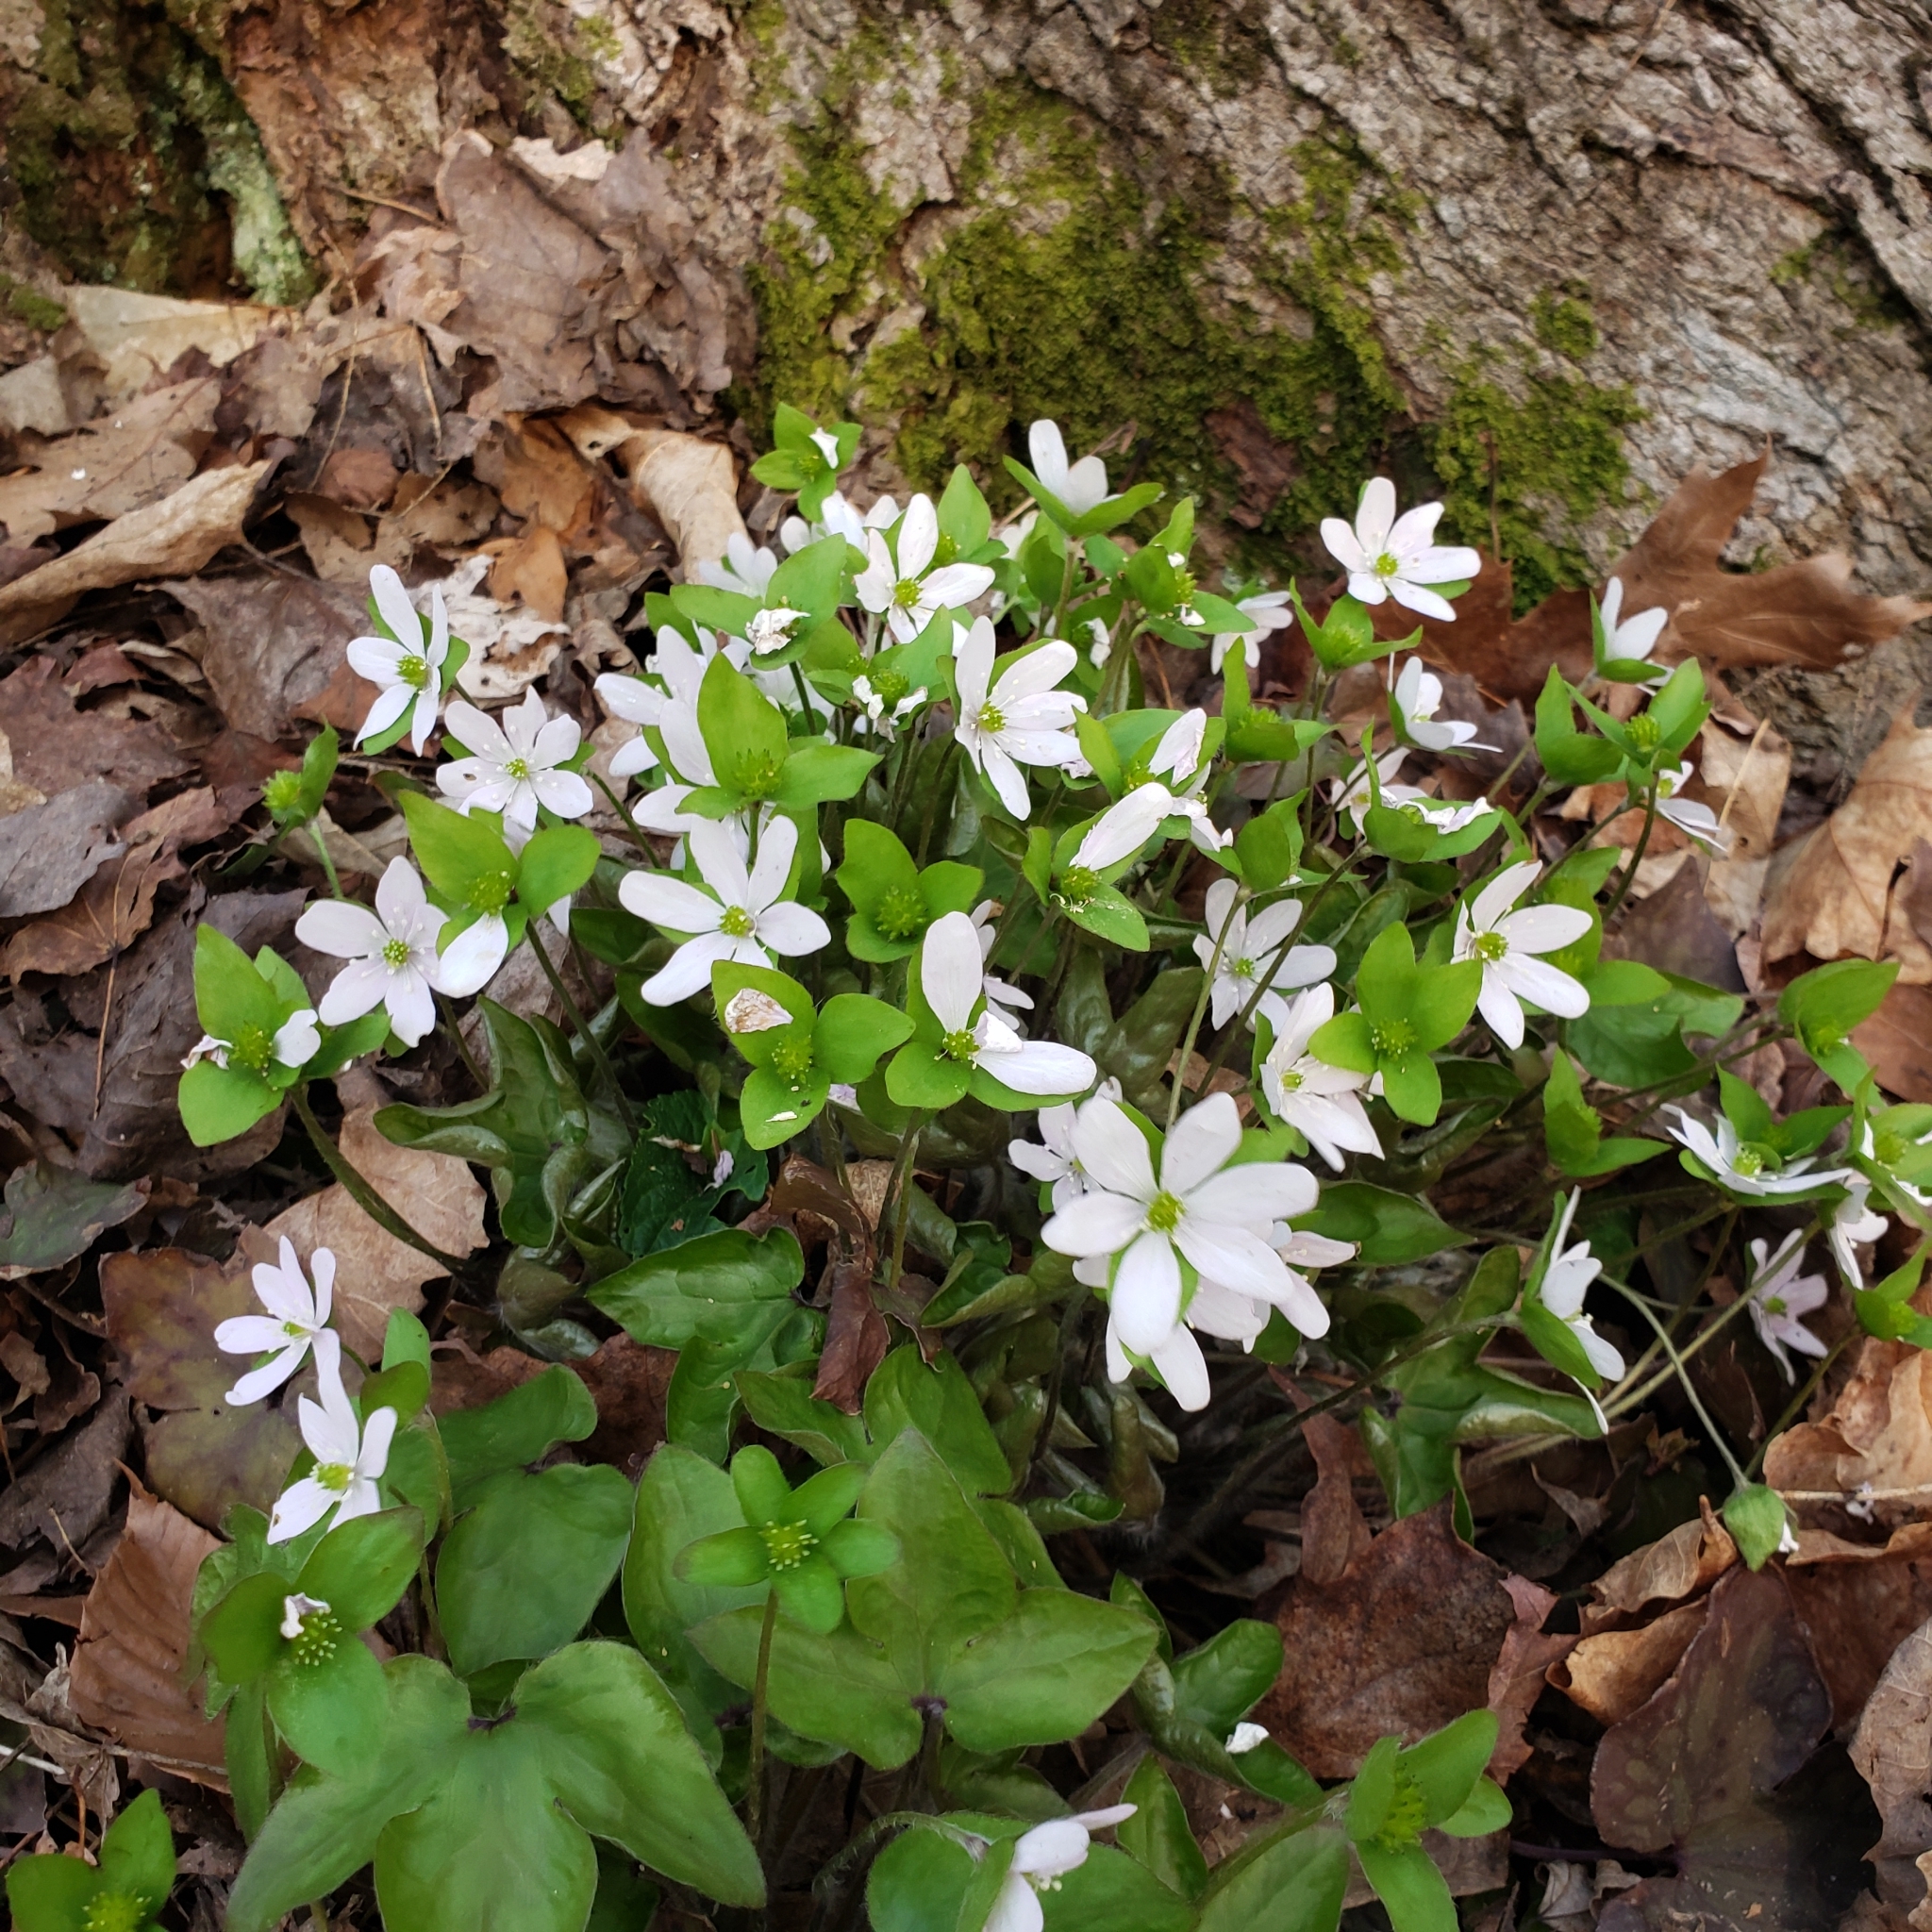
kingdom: Plantae
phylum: Tracheophyta
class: Magnoliopsida
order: Ranunculales
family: Ranunculaceae
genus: Hepatica
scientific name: Hepatica acutiloba
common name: Sharp-lobed hepatica
